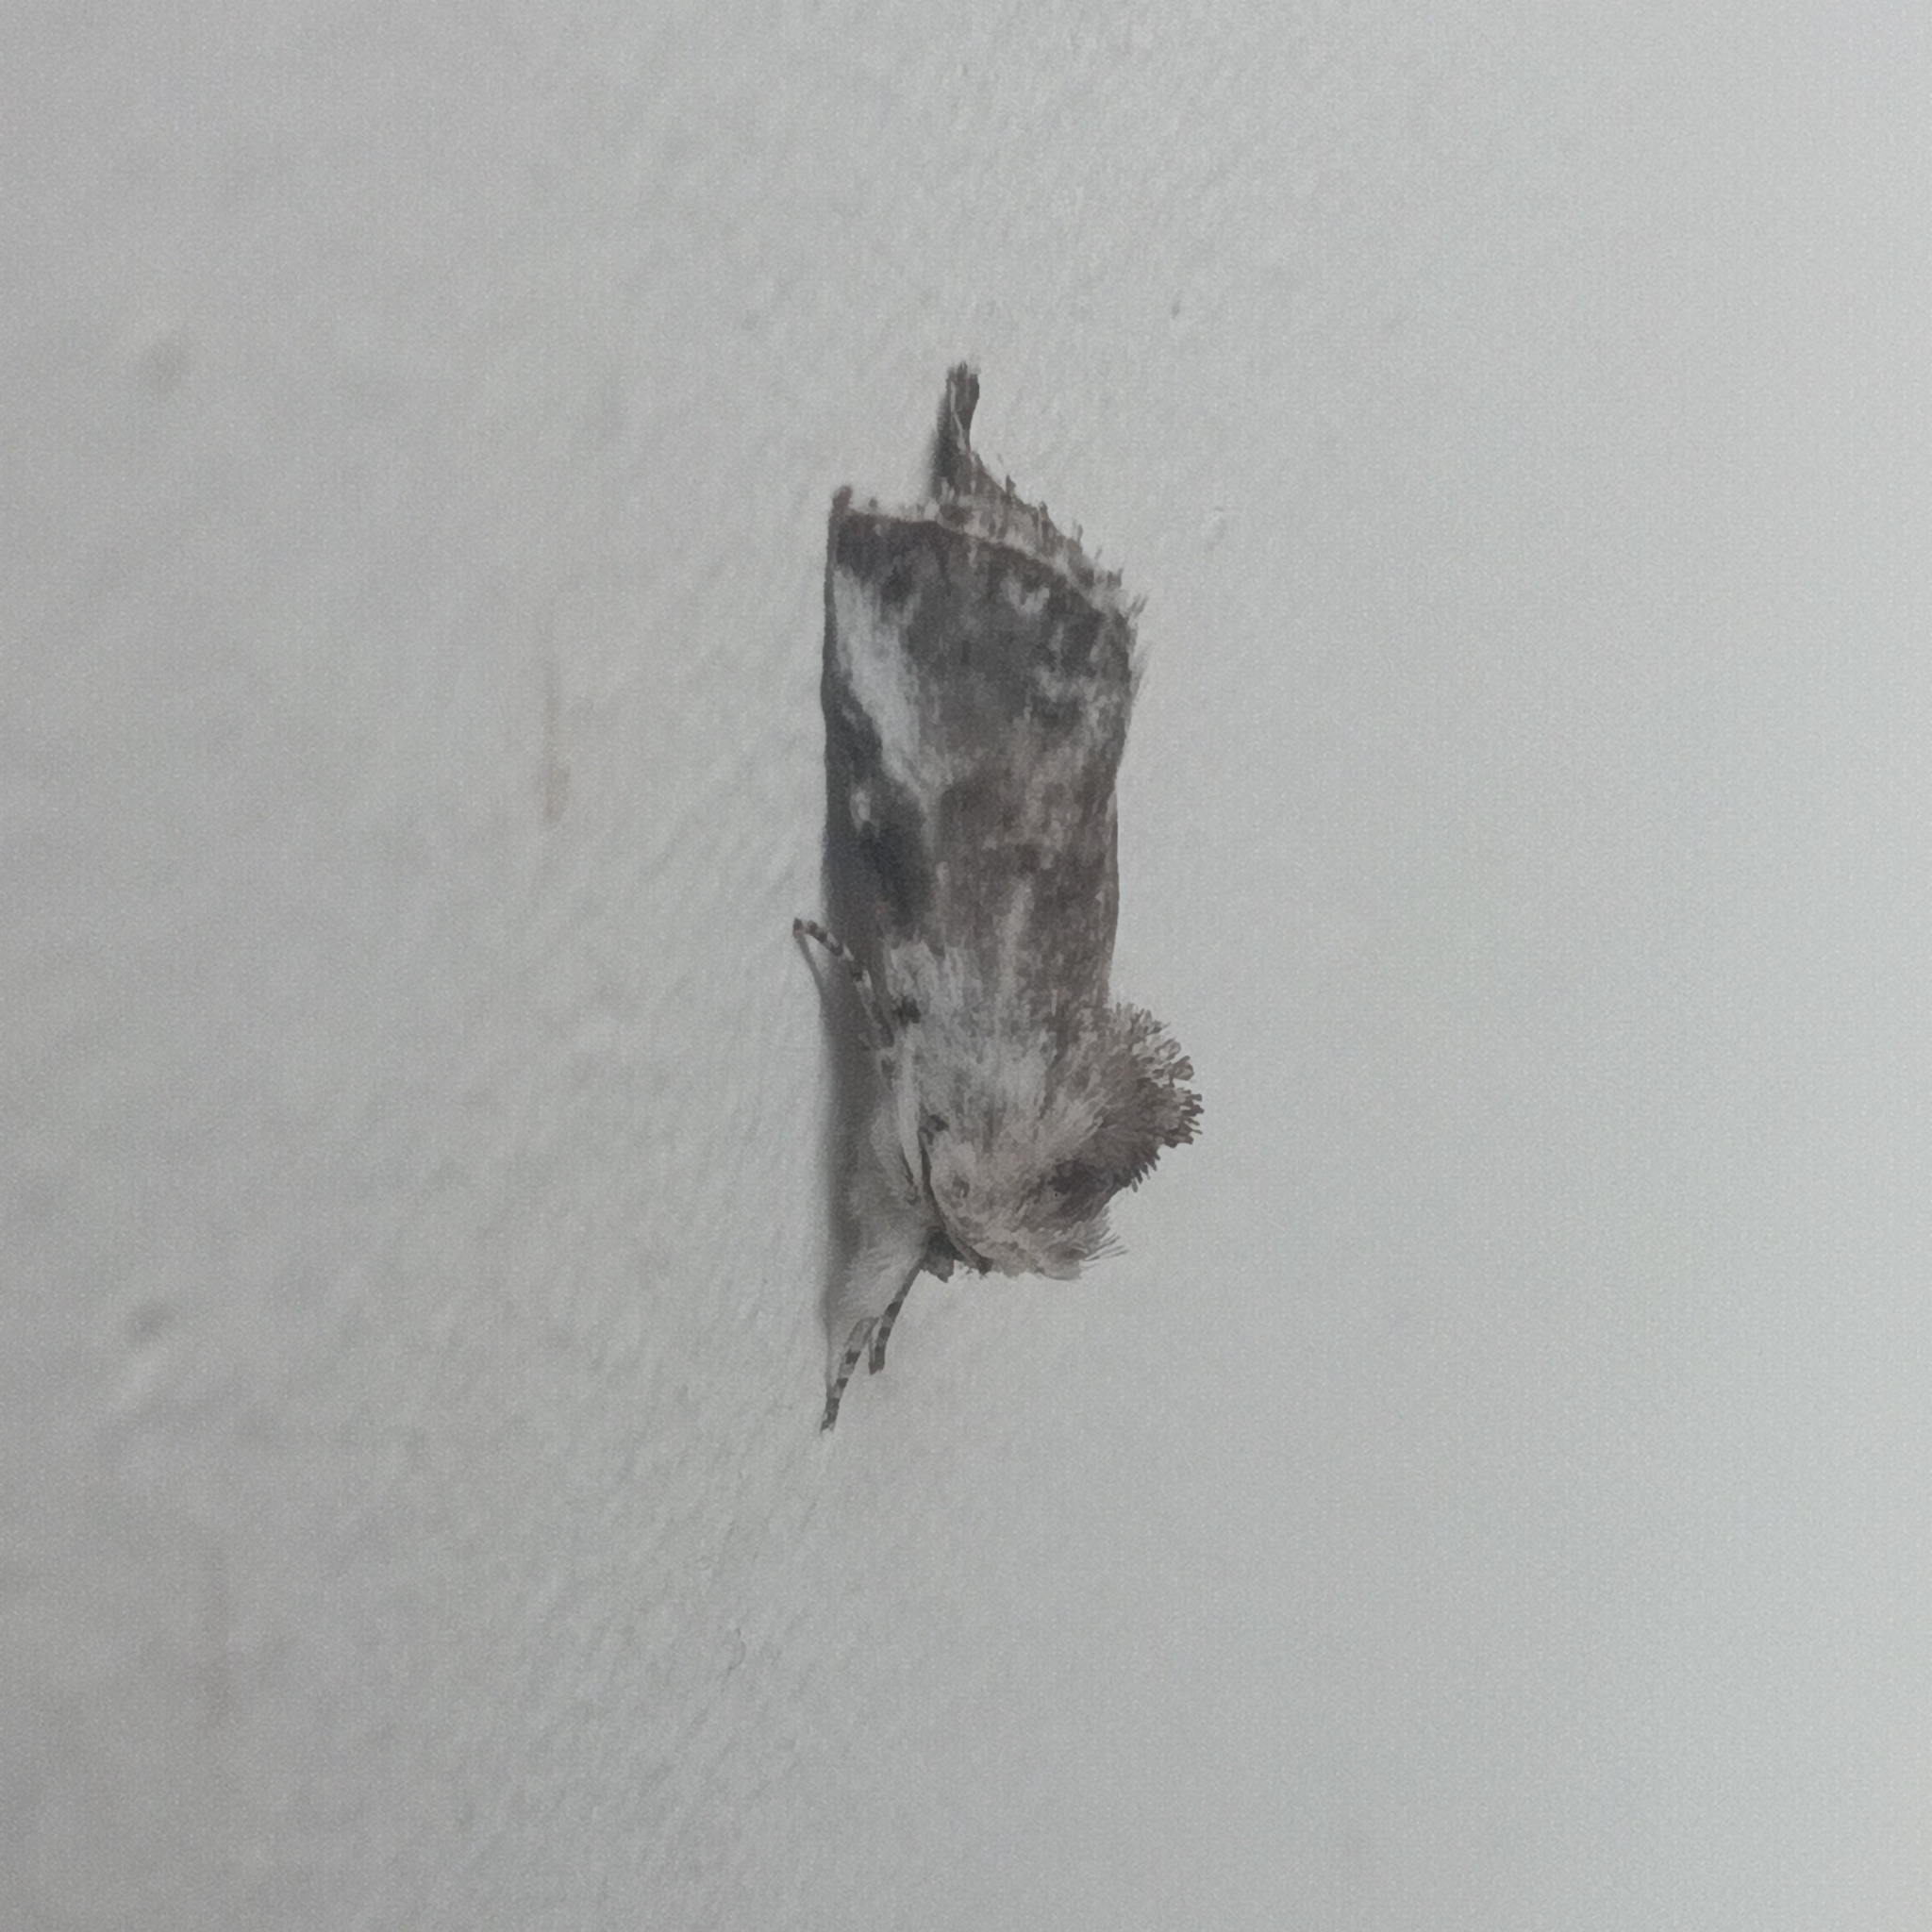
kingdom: Animalia
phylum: Arthropoda
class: Insecta
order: Lepidoptera
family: Noctuidae
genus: Calophasia
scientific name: Calophasia opalina
